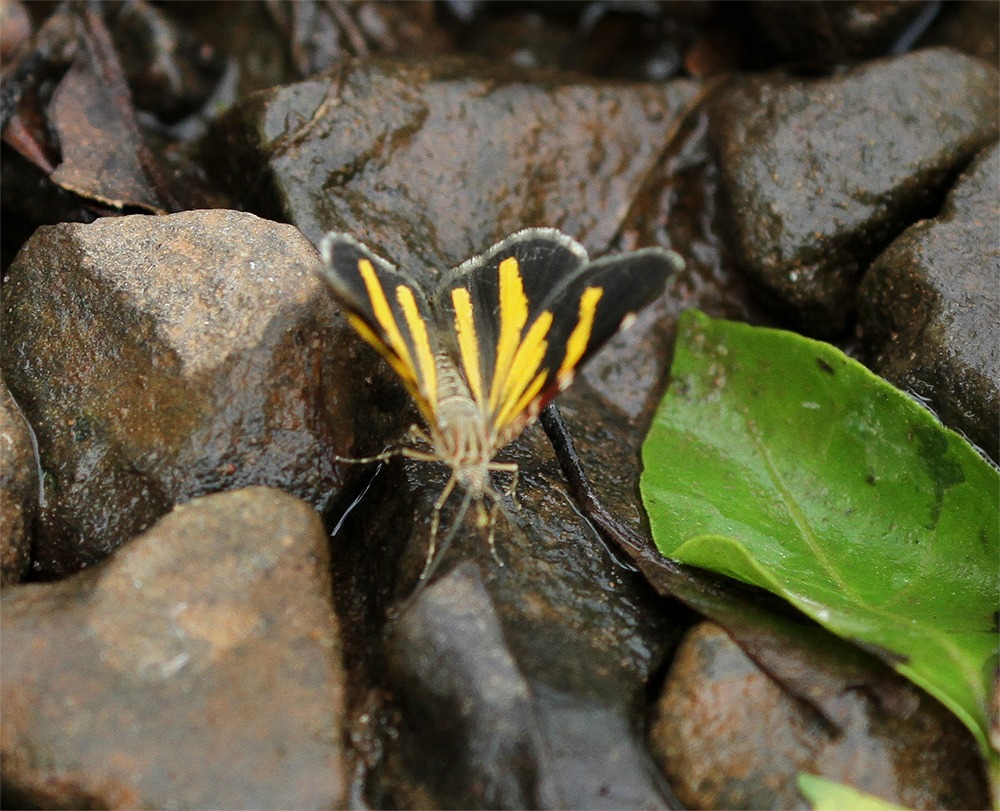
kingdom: Animalia
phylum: Arthropoda
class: Insecta
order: Lepidoptera
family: Geometridae
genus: Heterusia
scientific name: Heterusia quadruplicaria
